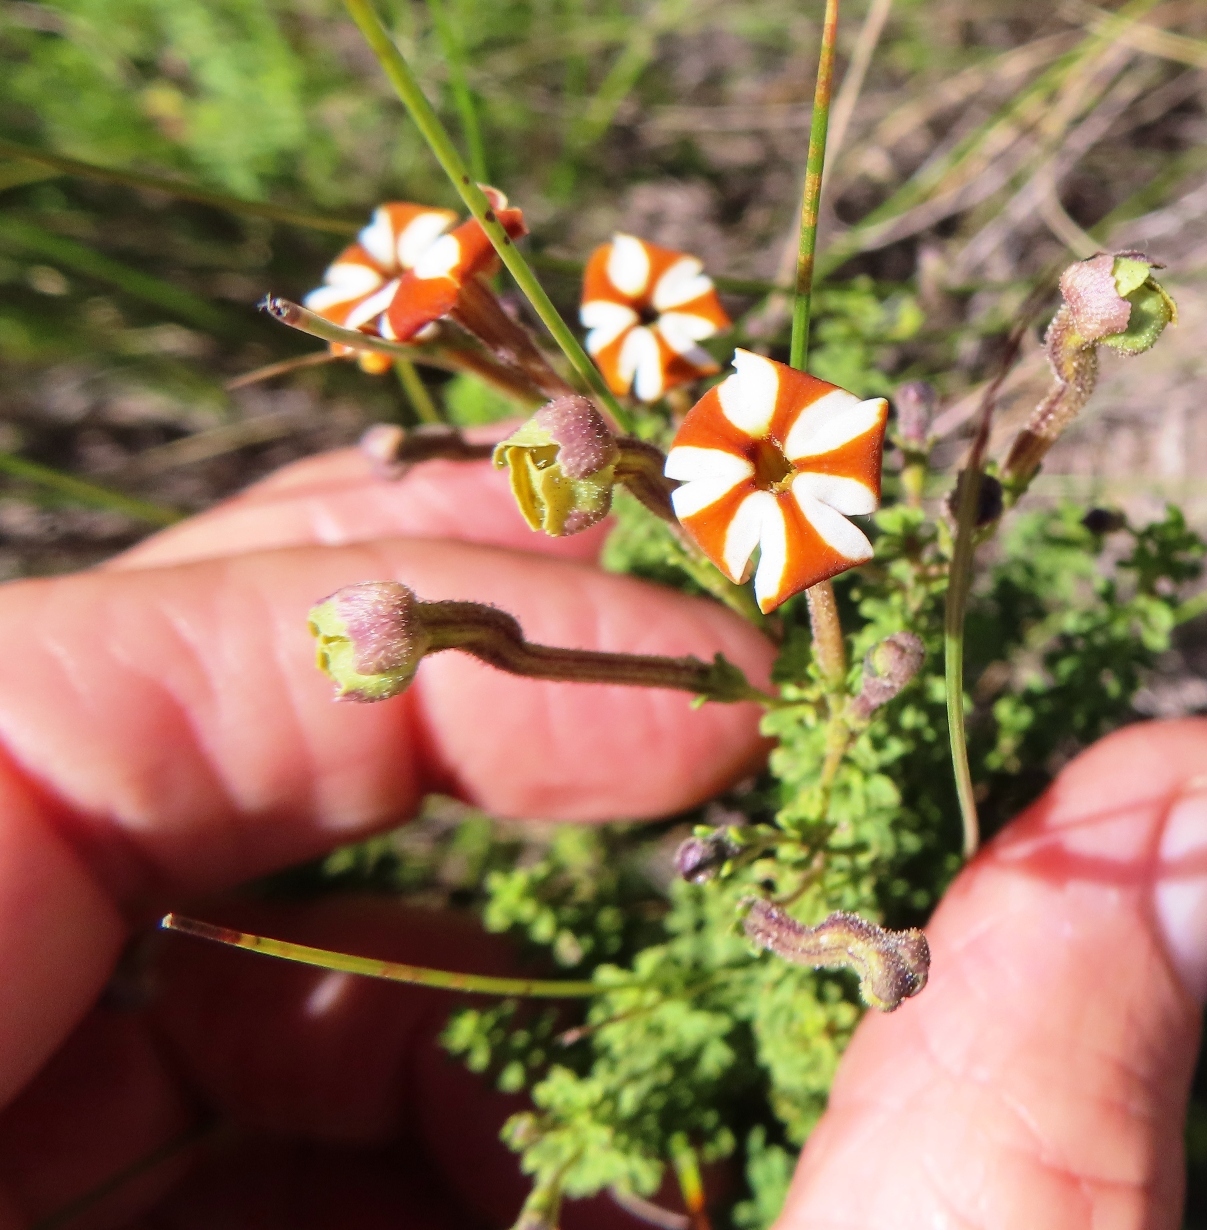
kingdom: Plantae
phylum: Tracheophyta
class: Magnoliopsida
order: Lamiales
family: Scrophulariaceae
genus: Jamesbrittenia
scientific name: Jamesbrittenia albomarginata
